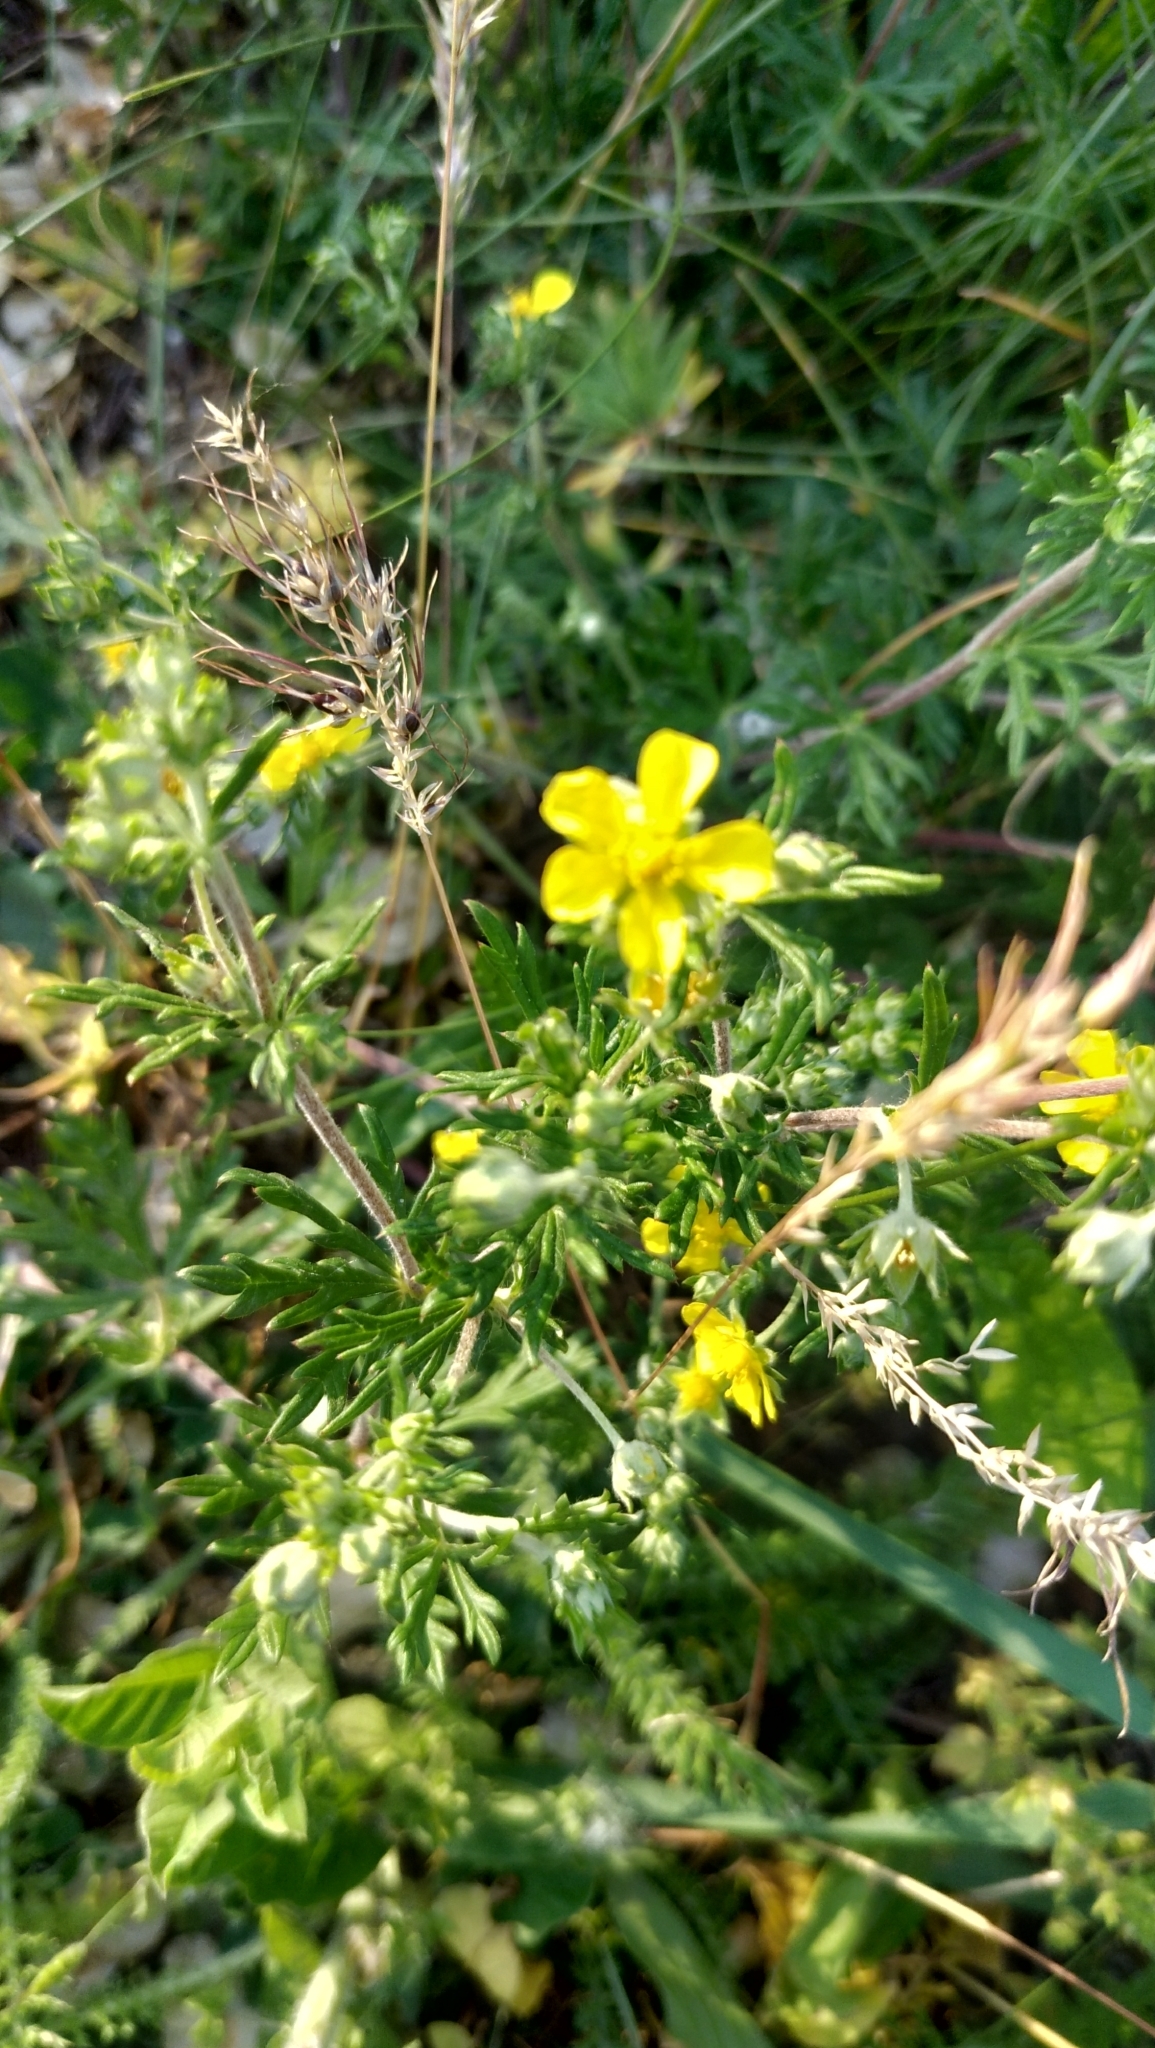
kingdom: Plantae
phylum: Tracheophyta
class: Magnoliopsida
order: Rosales
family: Rosaceae
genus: Potentilla
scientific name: Potentilla argentea
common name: Hoary cinquefoil
